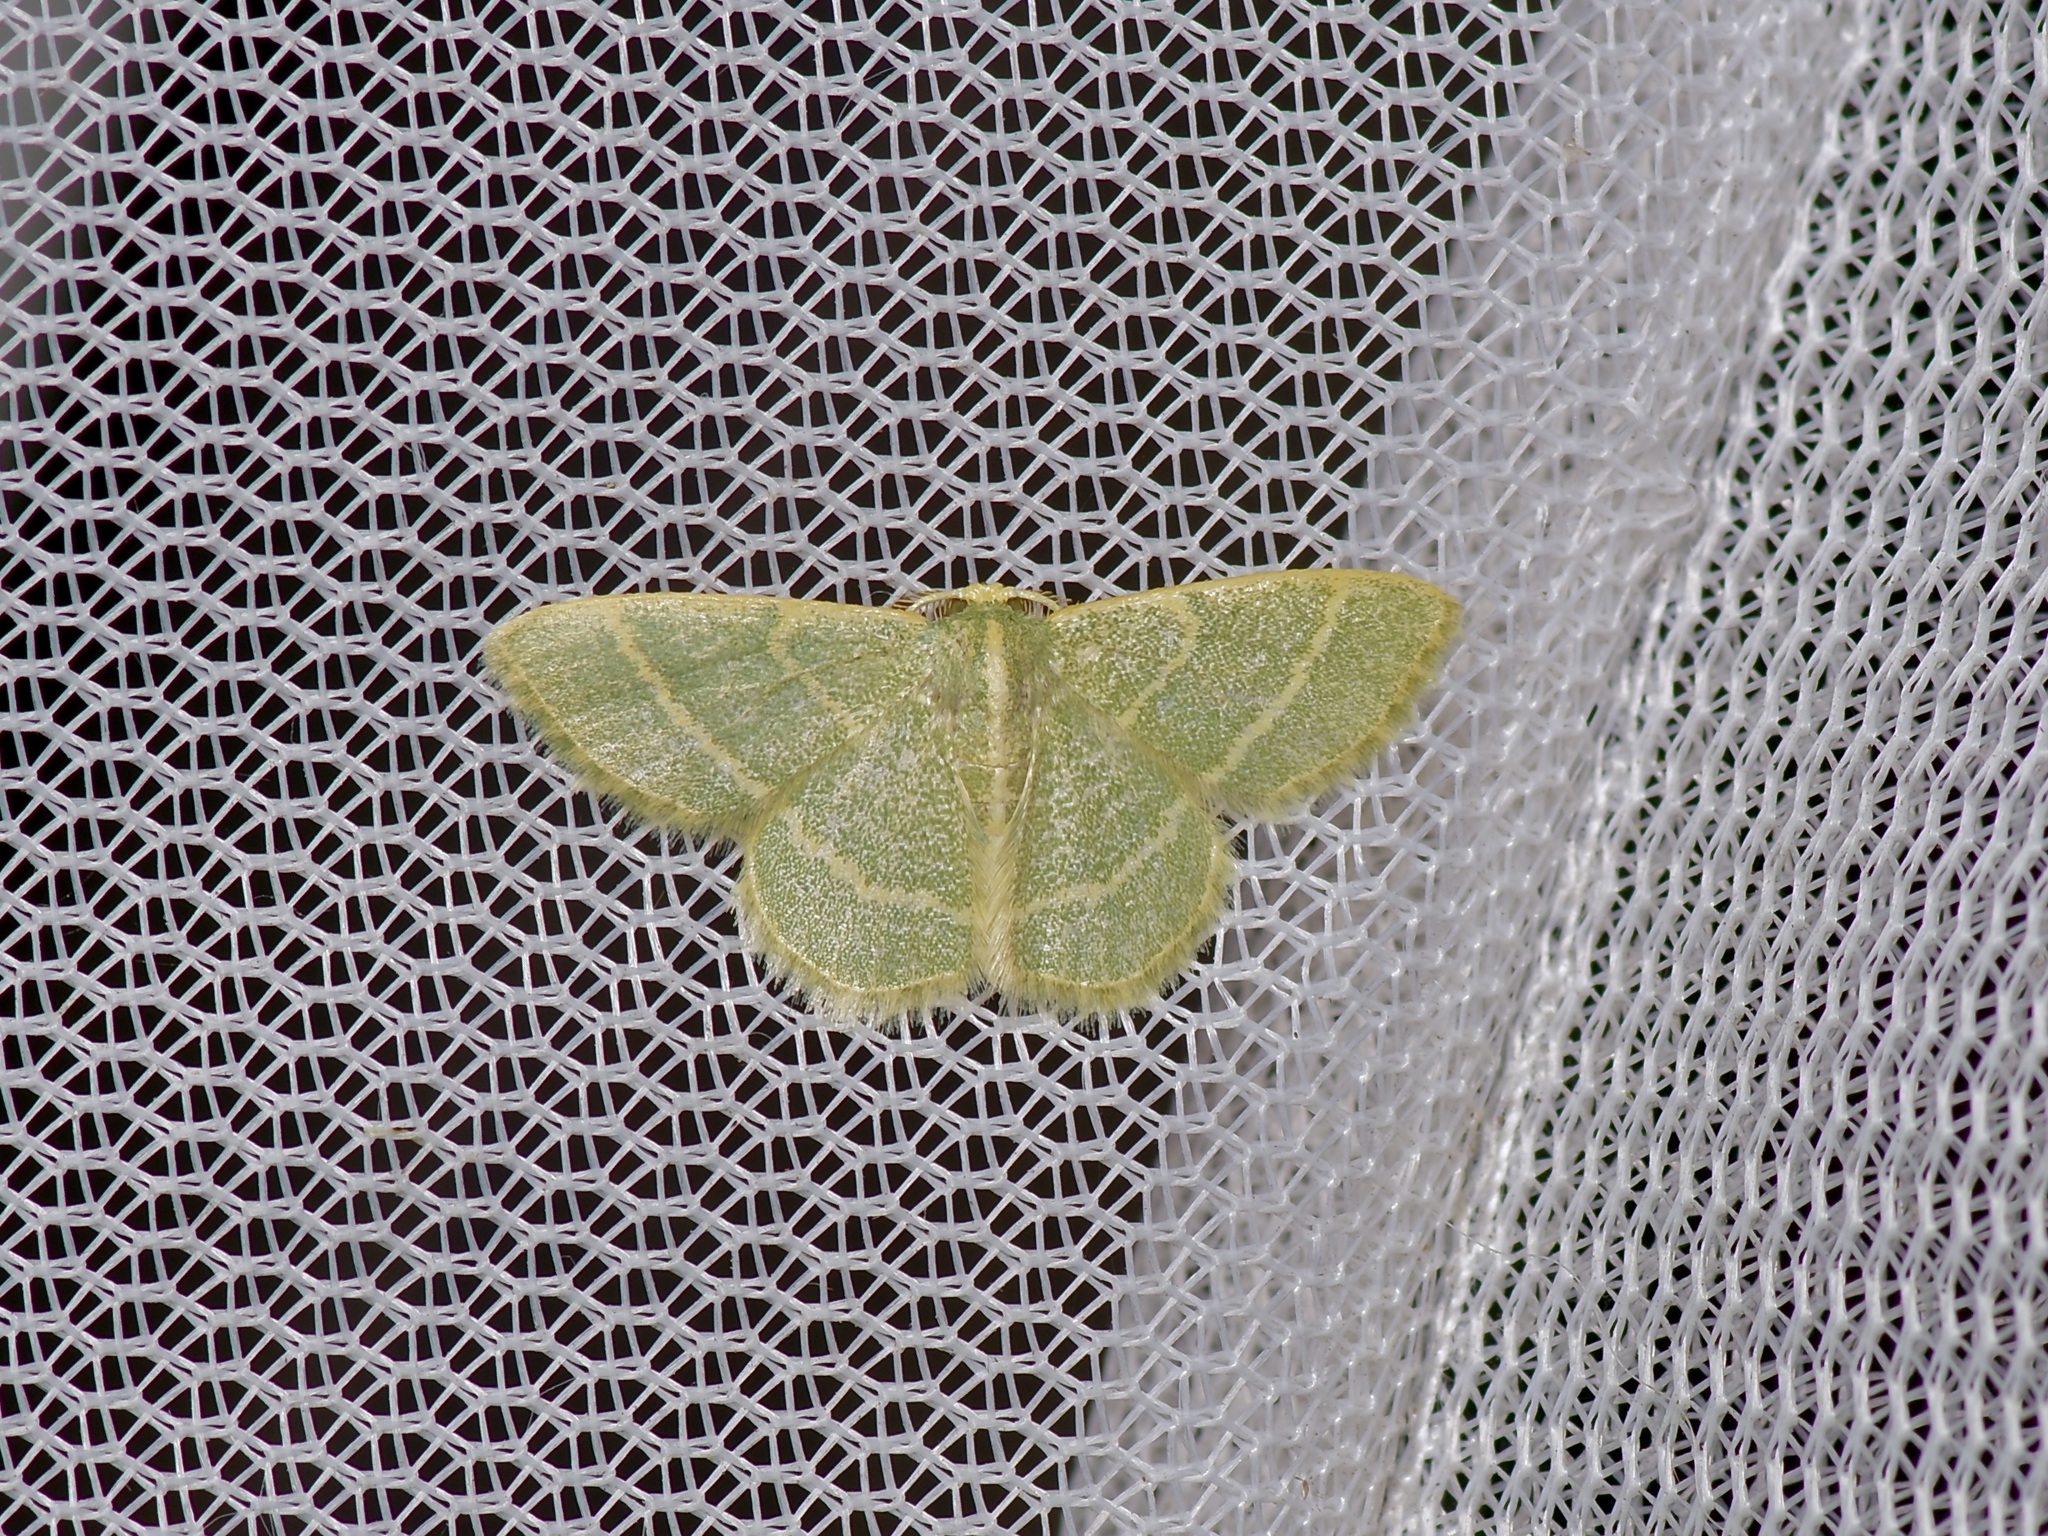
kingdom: Animalia
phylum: Arthropoda
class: Insecta
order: Lepidoptera
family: Geometridae
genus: Chlorochlamys
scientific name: Chlorochlamys chloroleucaria
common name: Blackberry looper
